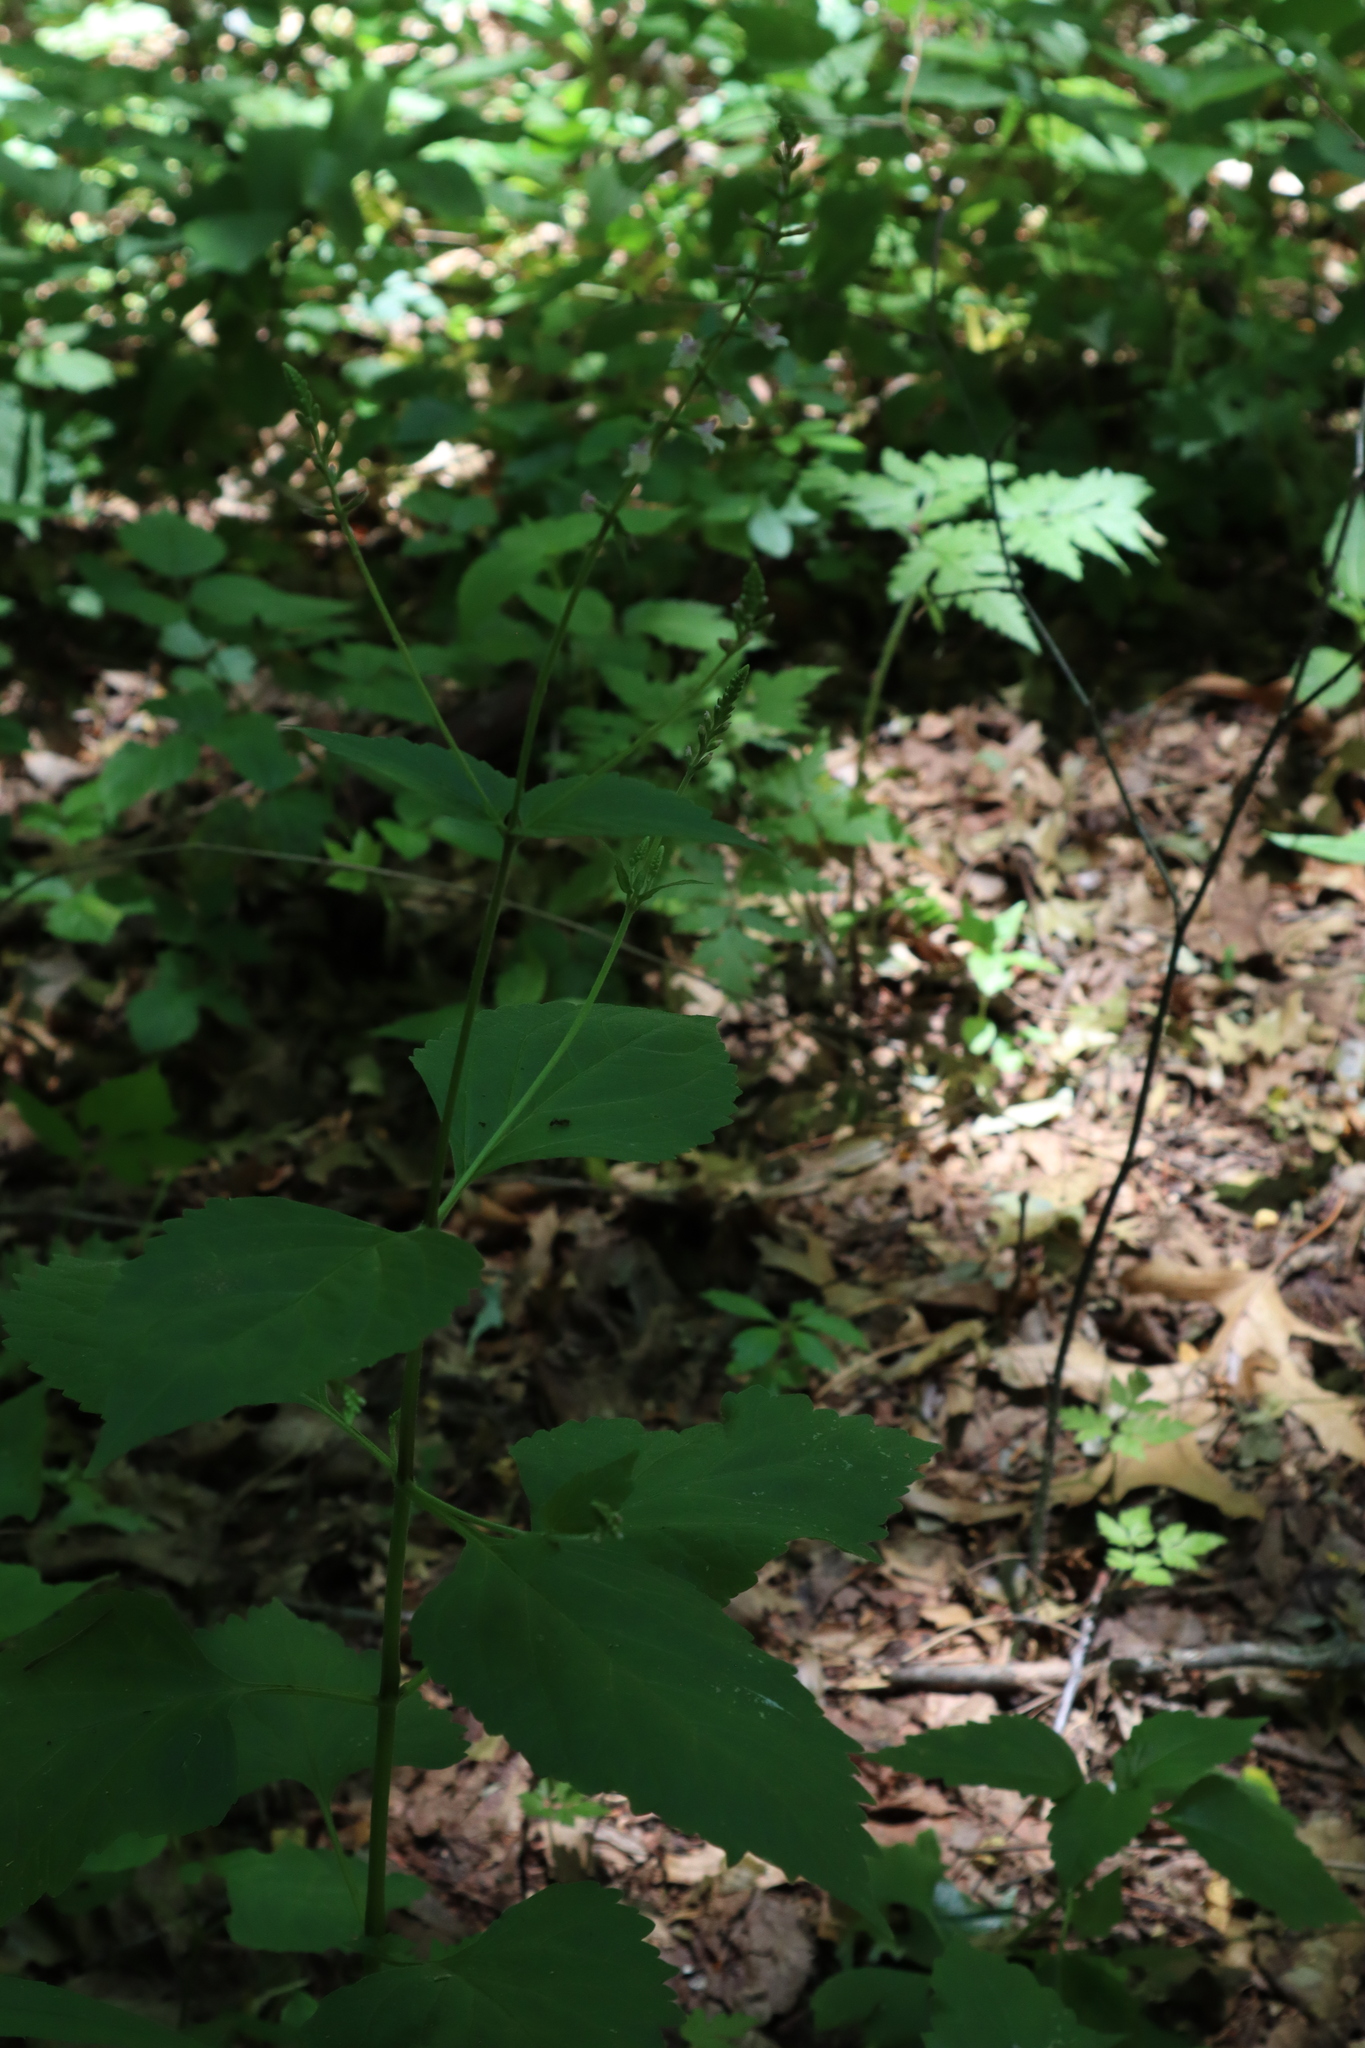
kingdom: Plantae
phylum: Tracheophyta
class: Magnoliopsida
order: Lamiales
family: Phrymaceae
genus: Phryma
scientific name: Phryma leptostachya
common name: American lopseed
